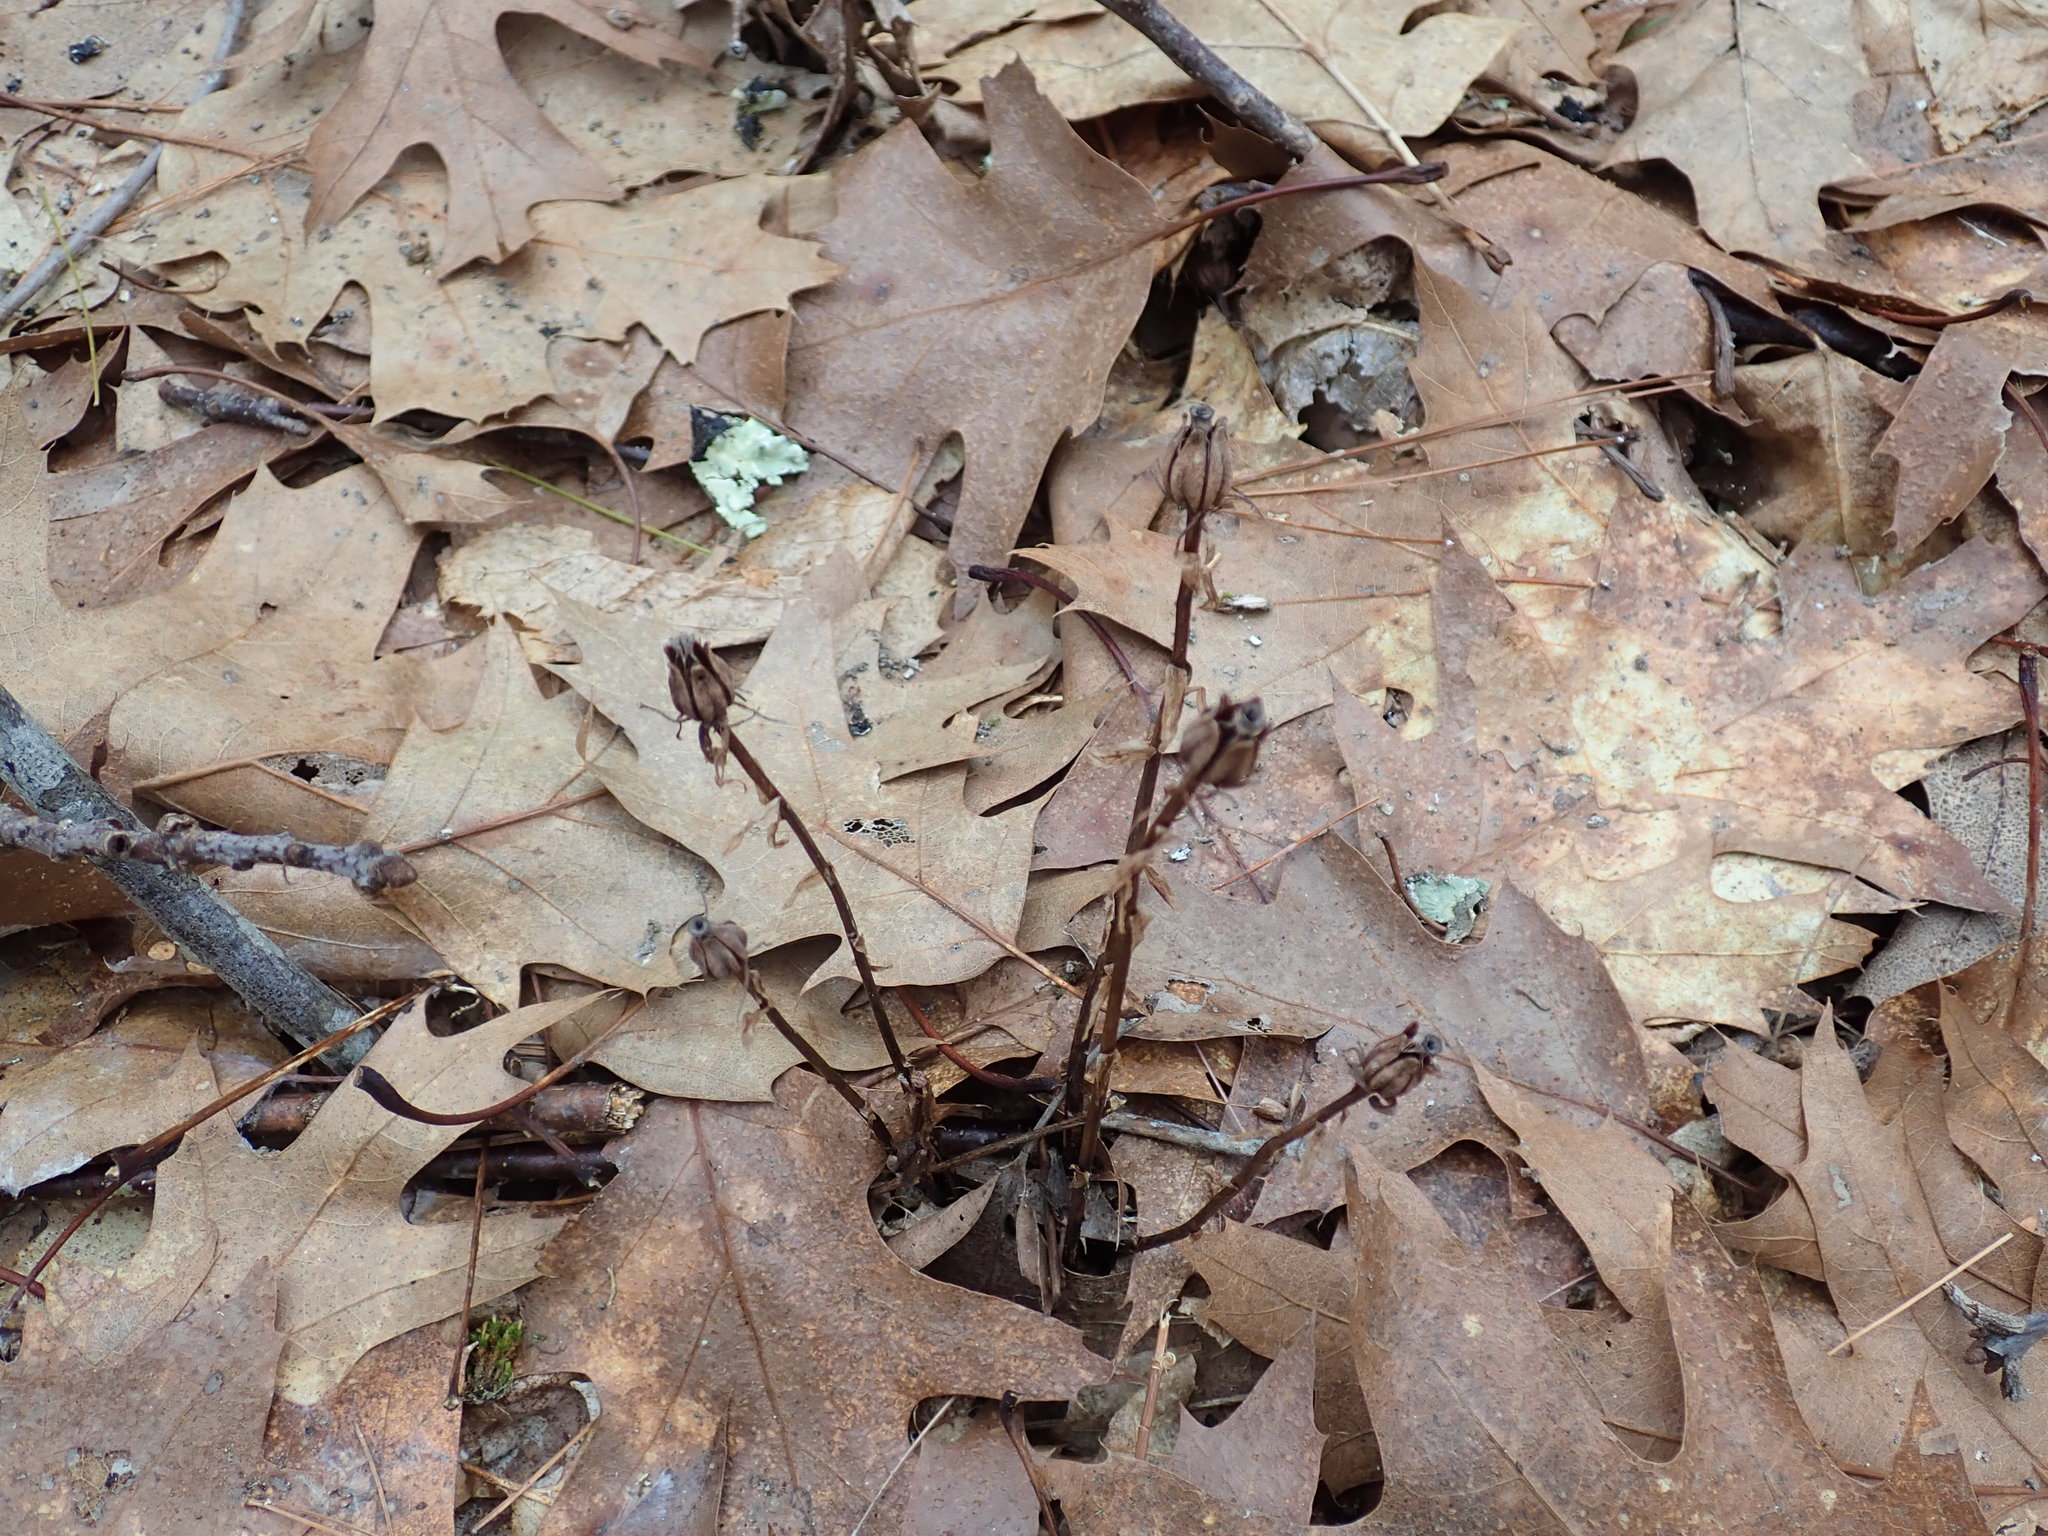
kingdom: Plantae
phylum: Tracheophyta
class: Magnoliopsida
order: Ericales
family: Ericaceae
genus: Monotropa
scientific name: Monotropa uniflora
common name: Convulsion root
